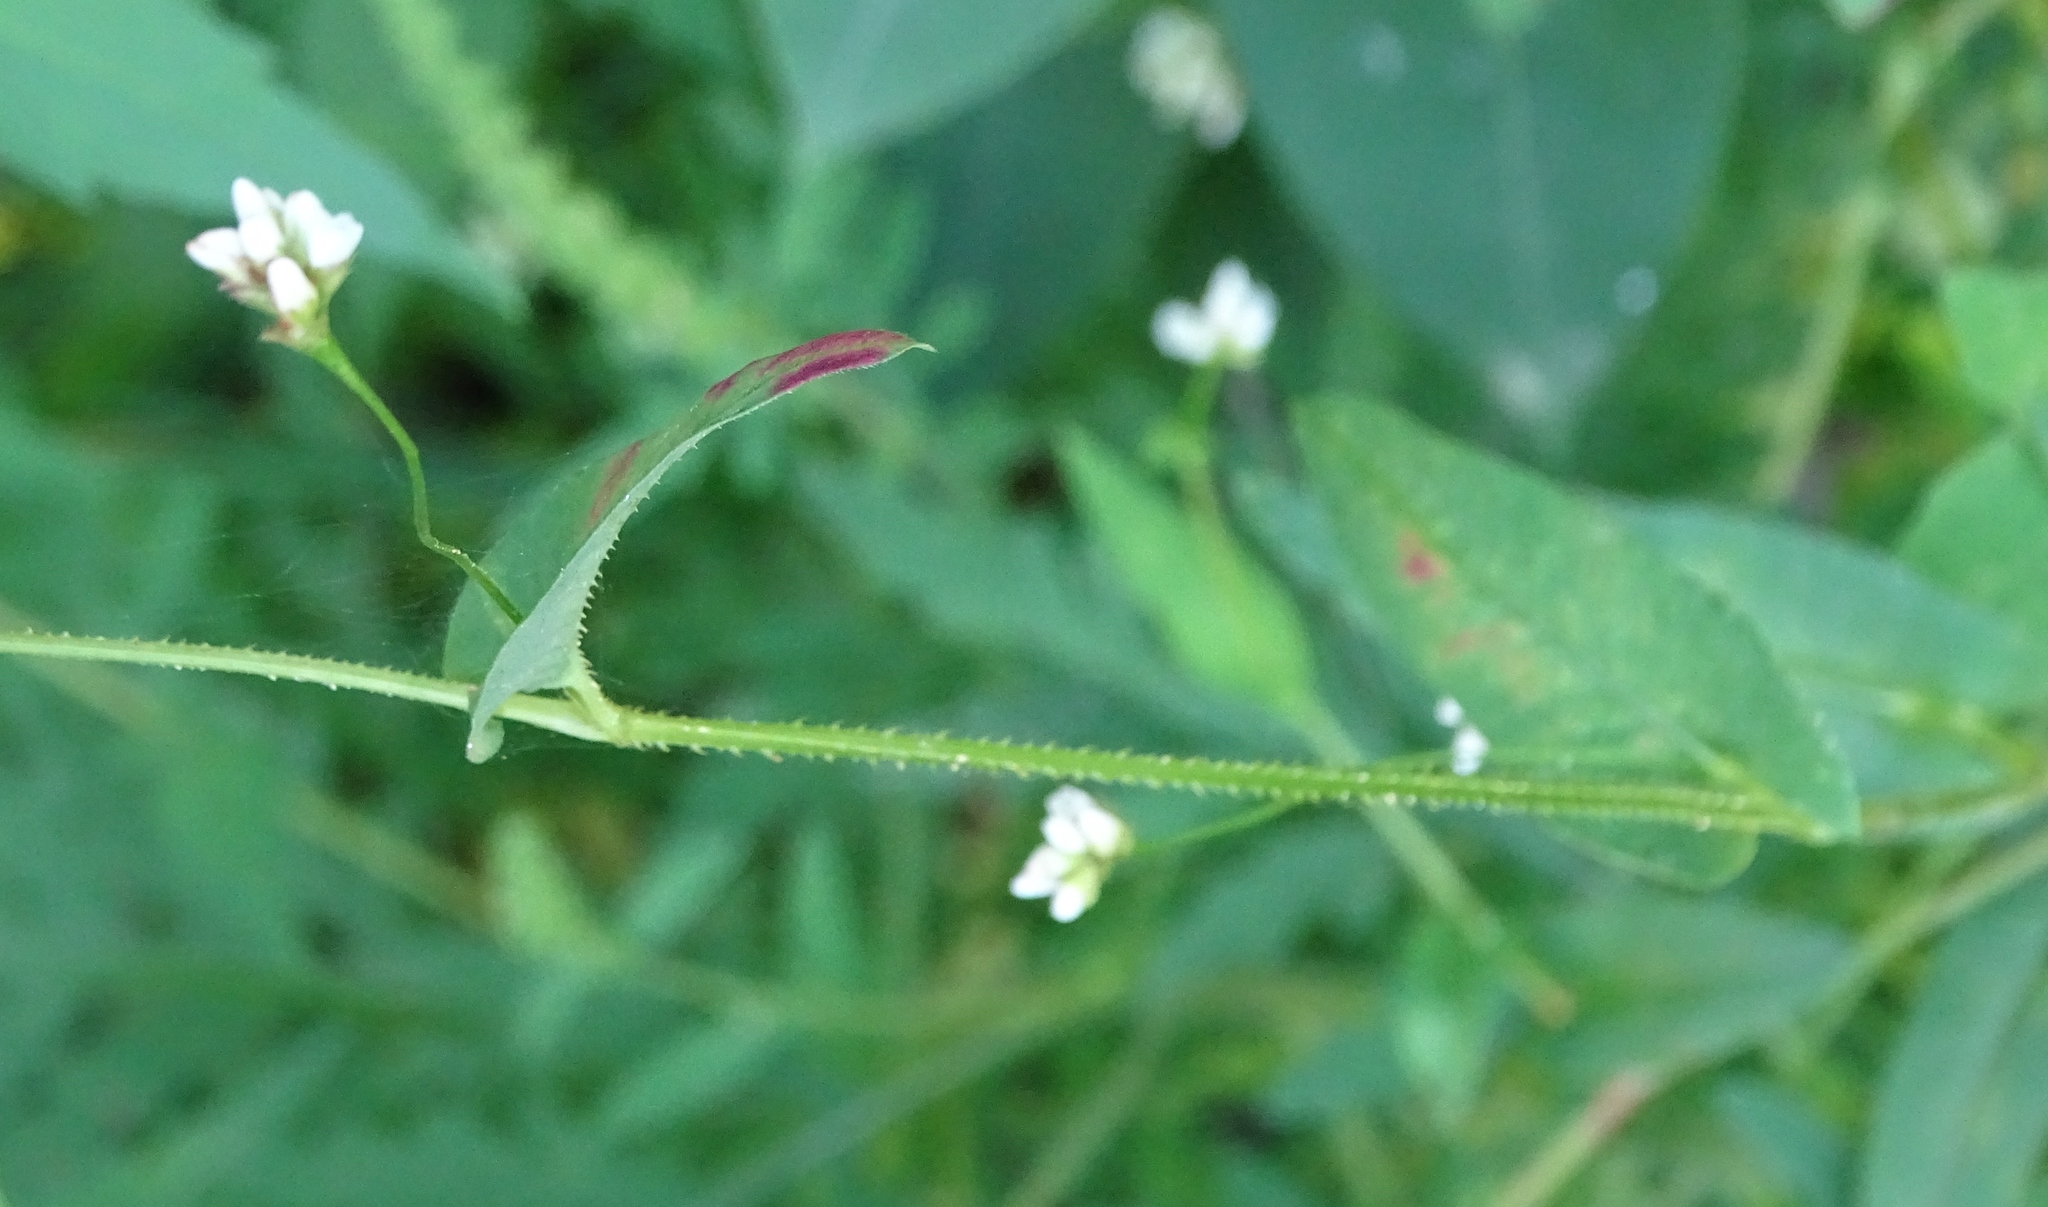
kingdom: Plantae
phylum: Tracheophyta
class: Magnoliopsida
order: Caryophyllales
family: Polygonaceae
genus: Persicaria
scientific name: Persicaria sagittata
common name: American tearthumb
